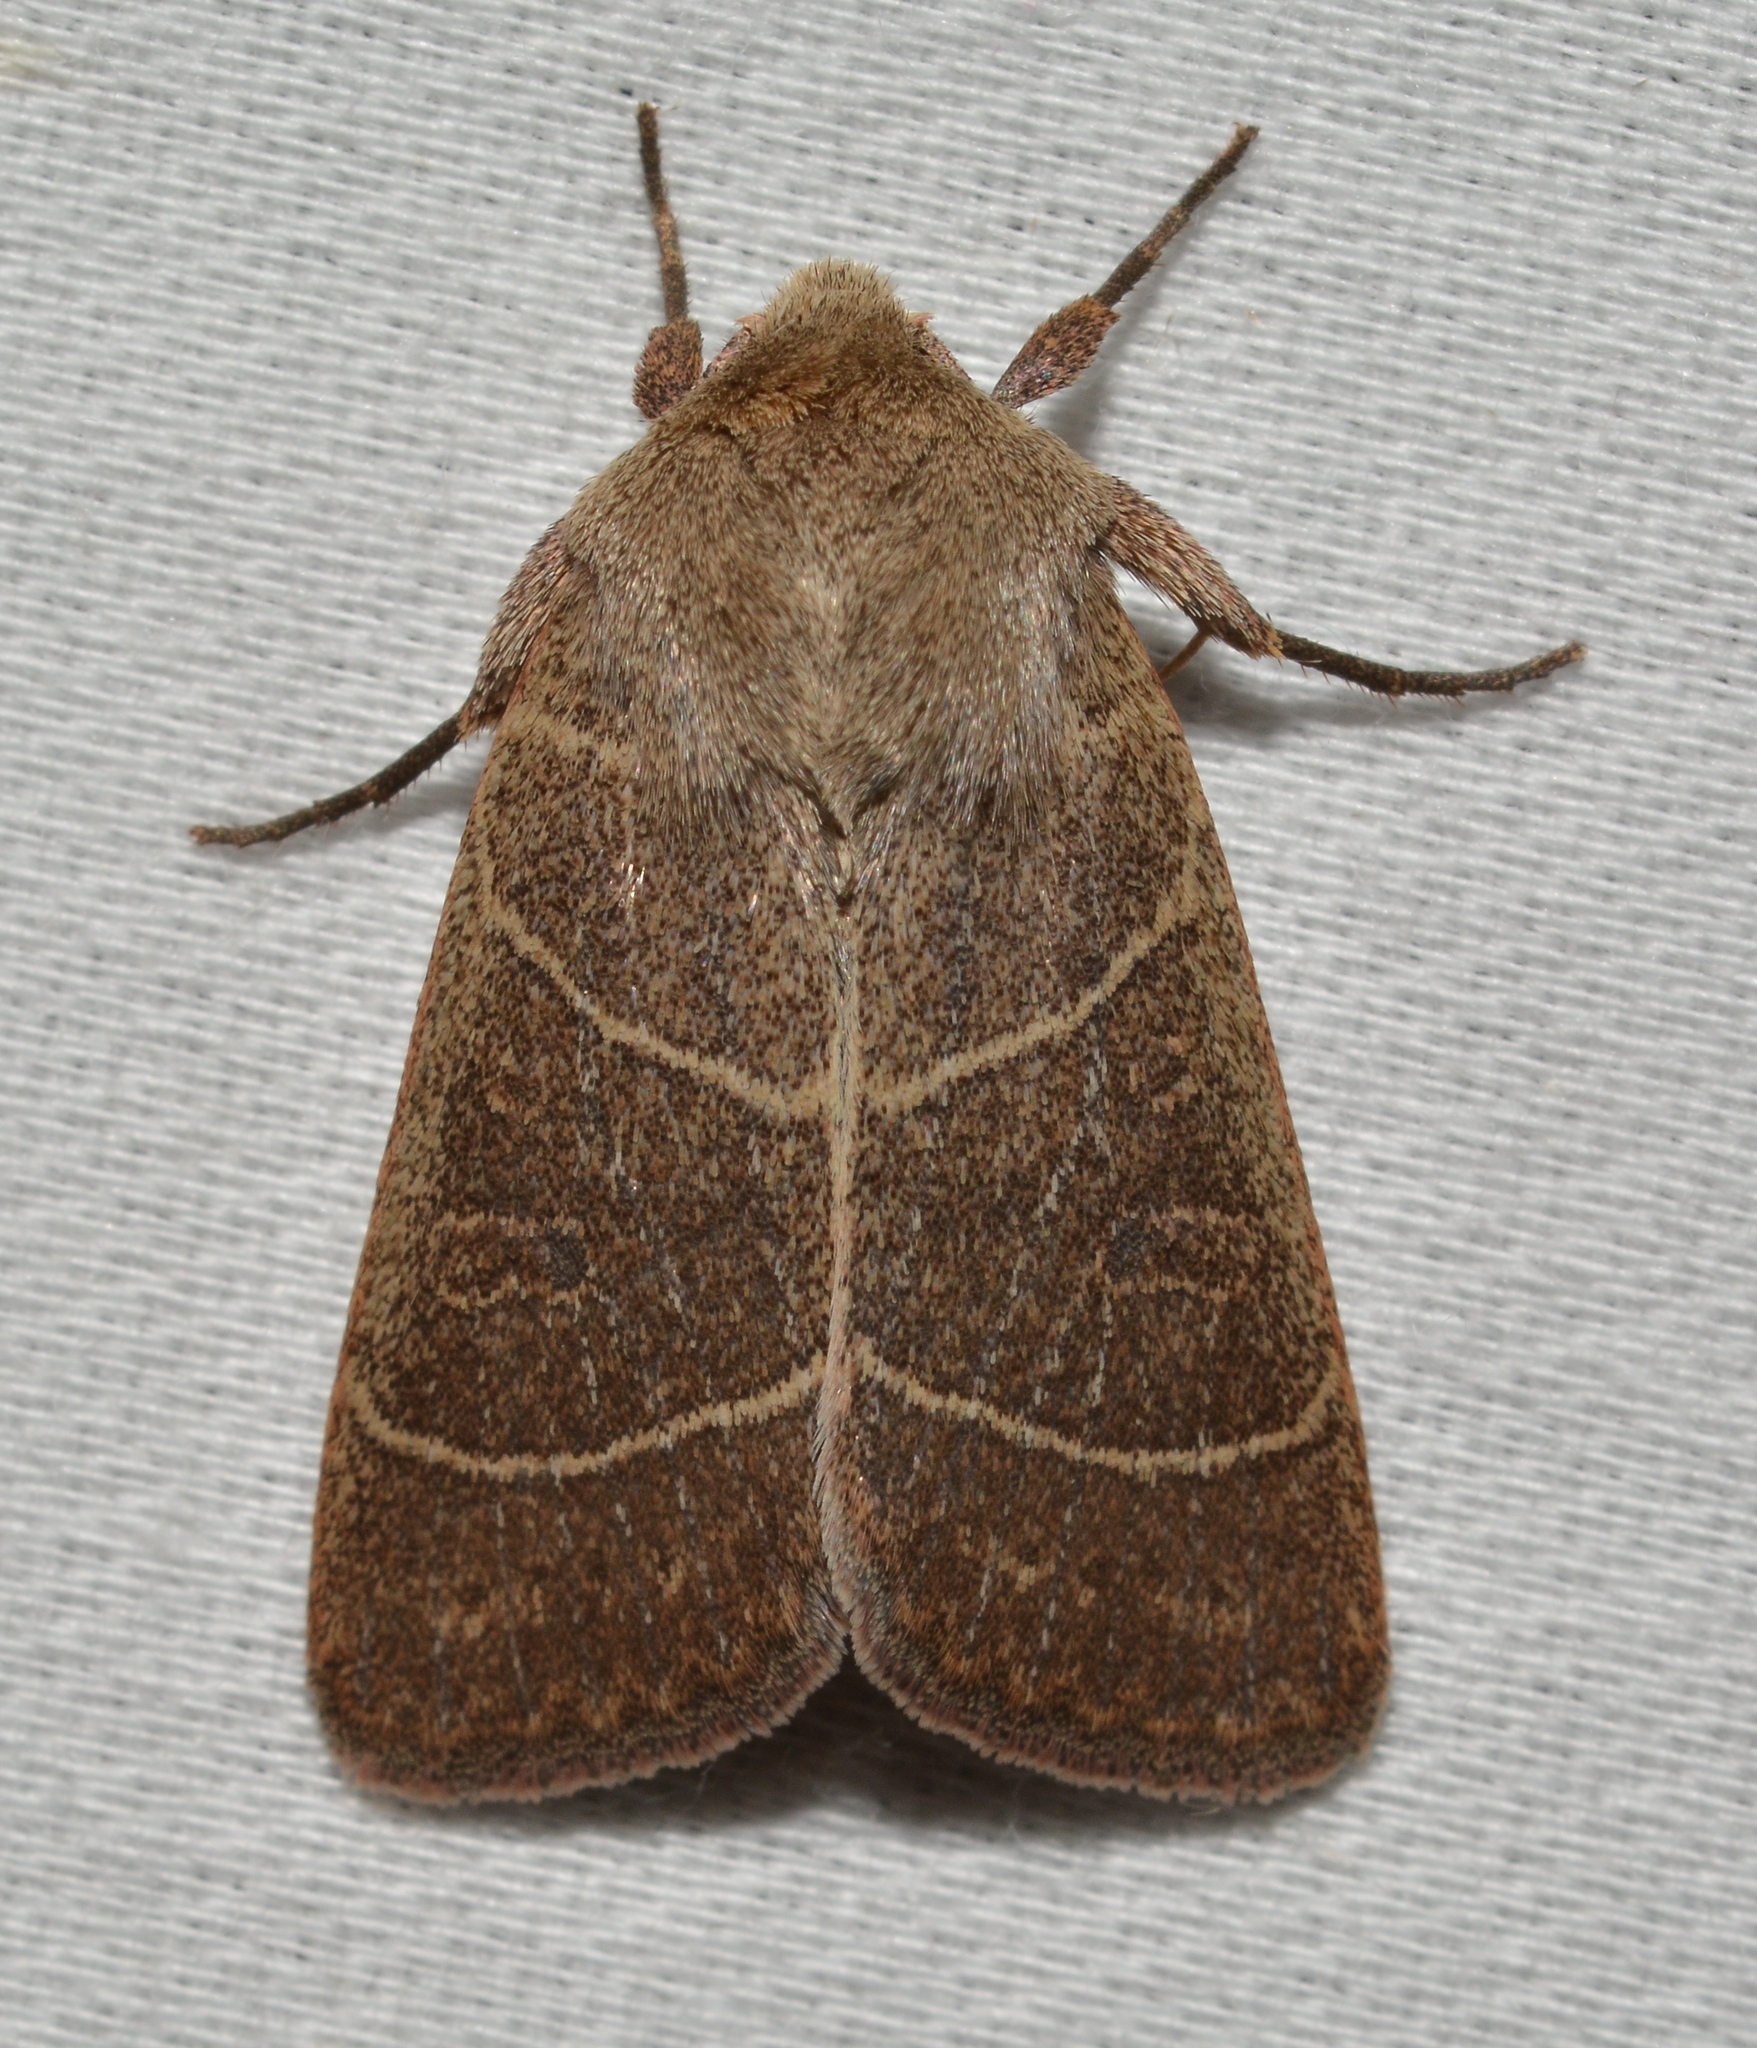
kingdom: Animalia
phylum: Arthropoda
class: Insecta
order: Lepidoptera
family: Noctuidae
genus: Ulolonche
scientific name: Ulolonche culea
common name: Sheathed quaker
